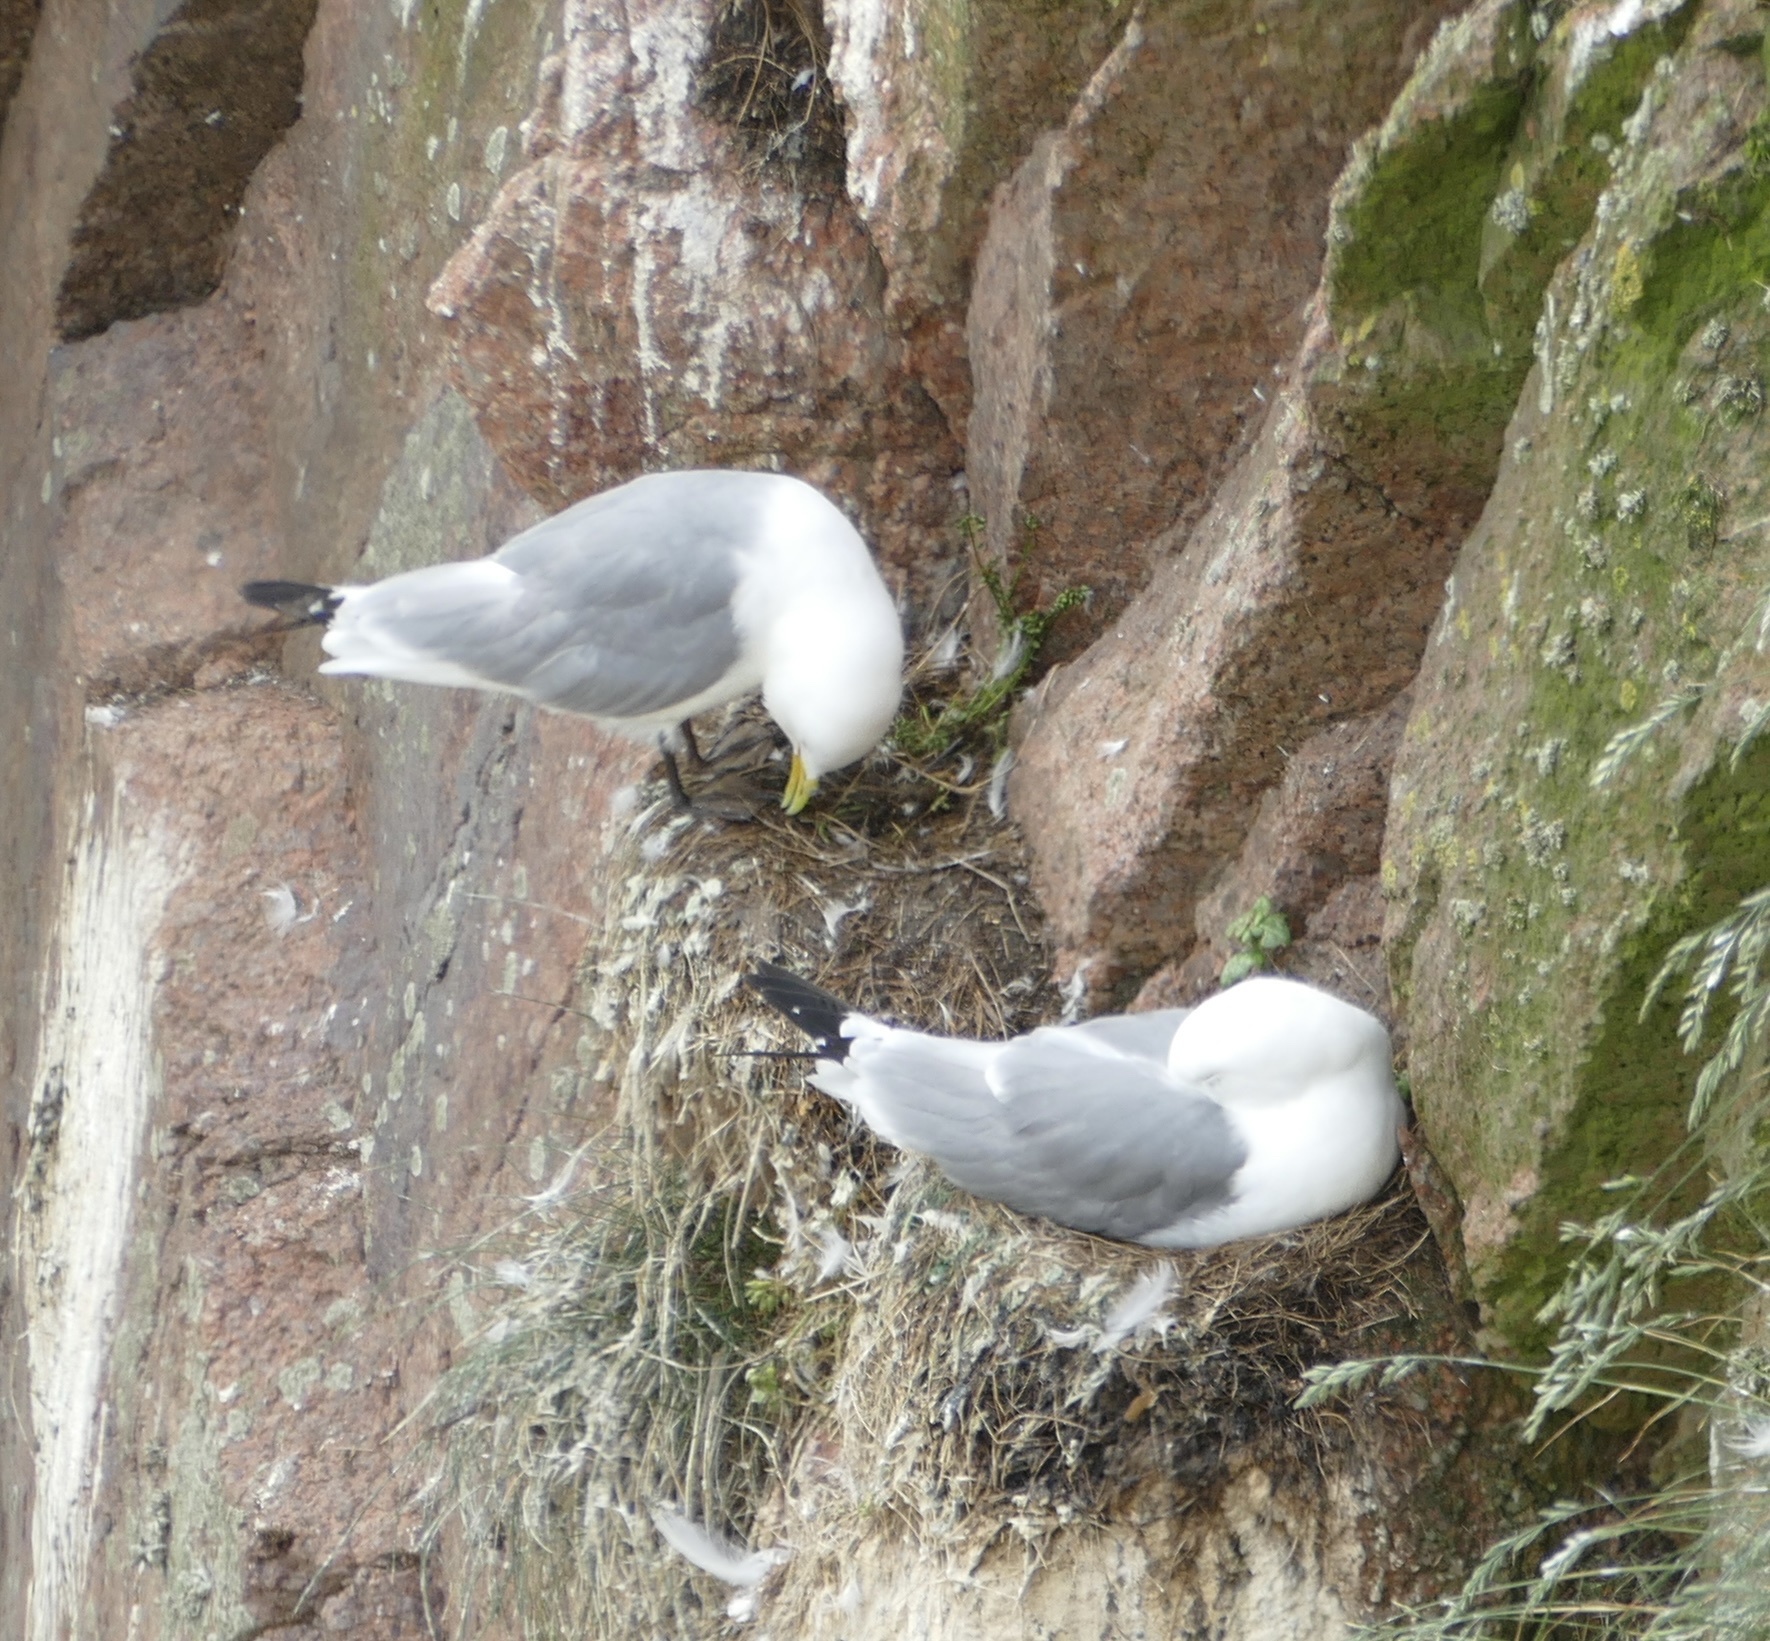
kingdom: Animalia
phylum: Chordata
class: Aves
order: Charadriiformes
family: Laridae
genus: Rissa
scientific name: Rissa tridactyla
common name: Black-legged kittiwake
